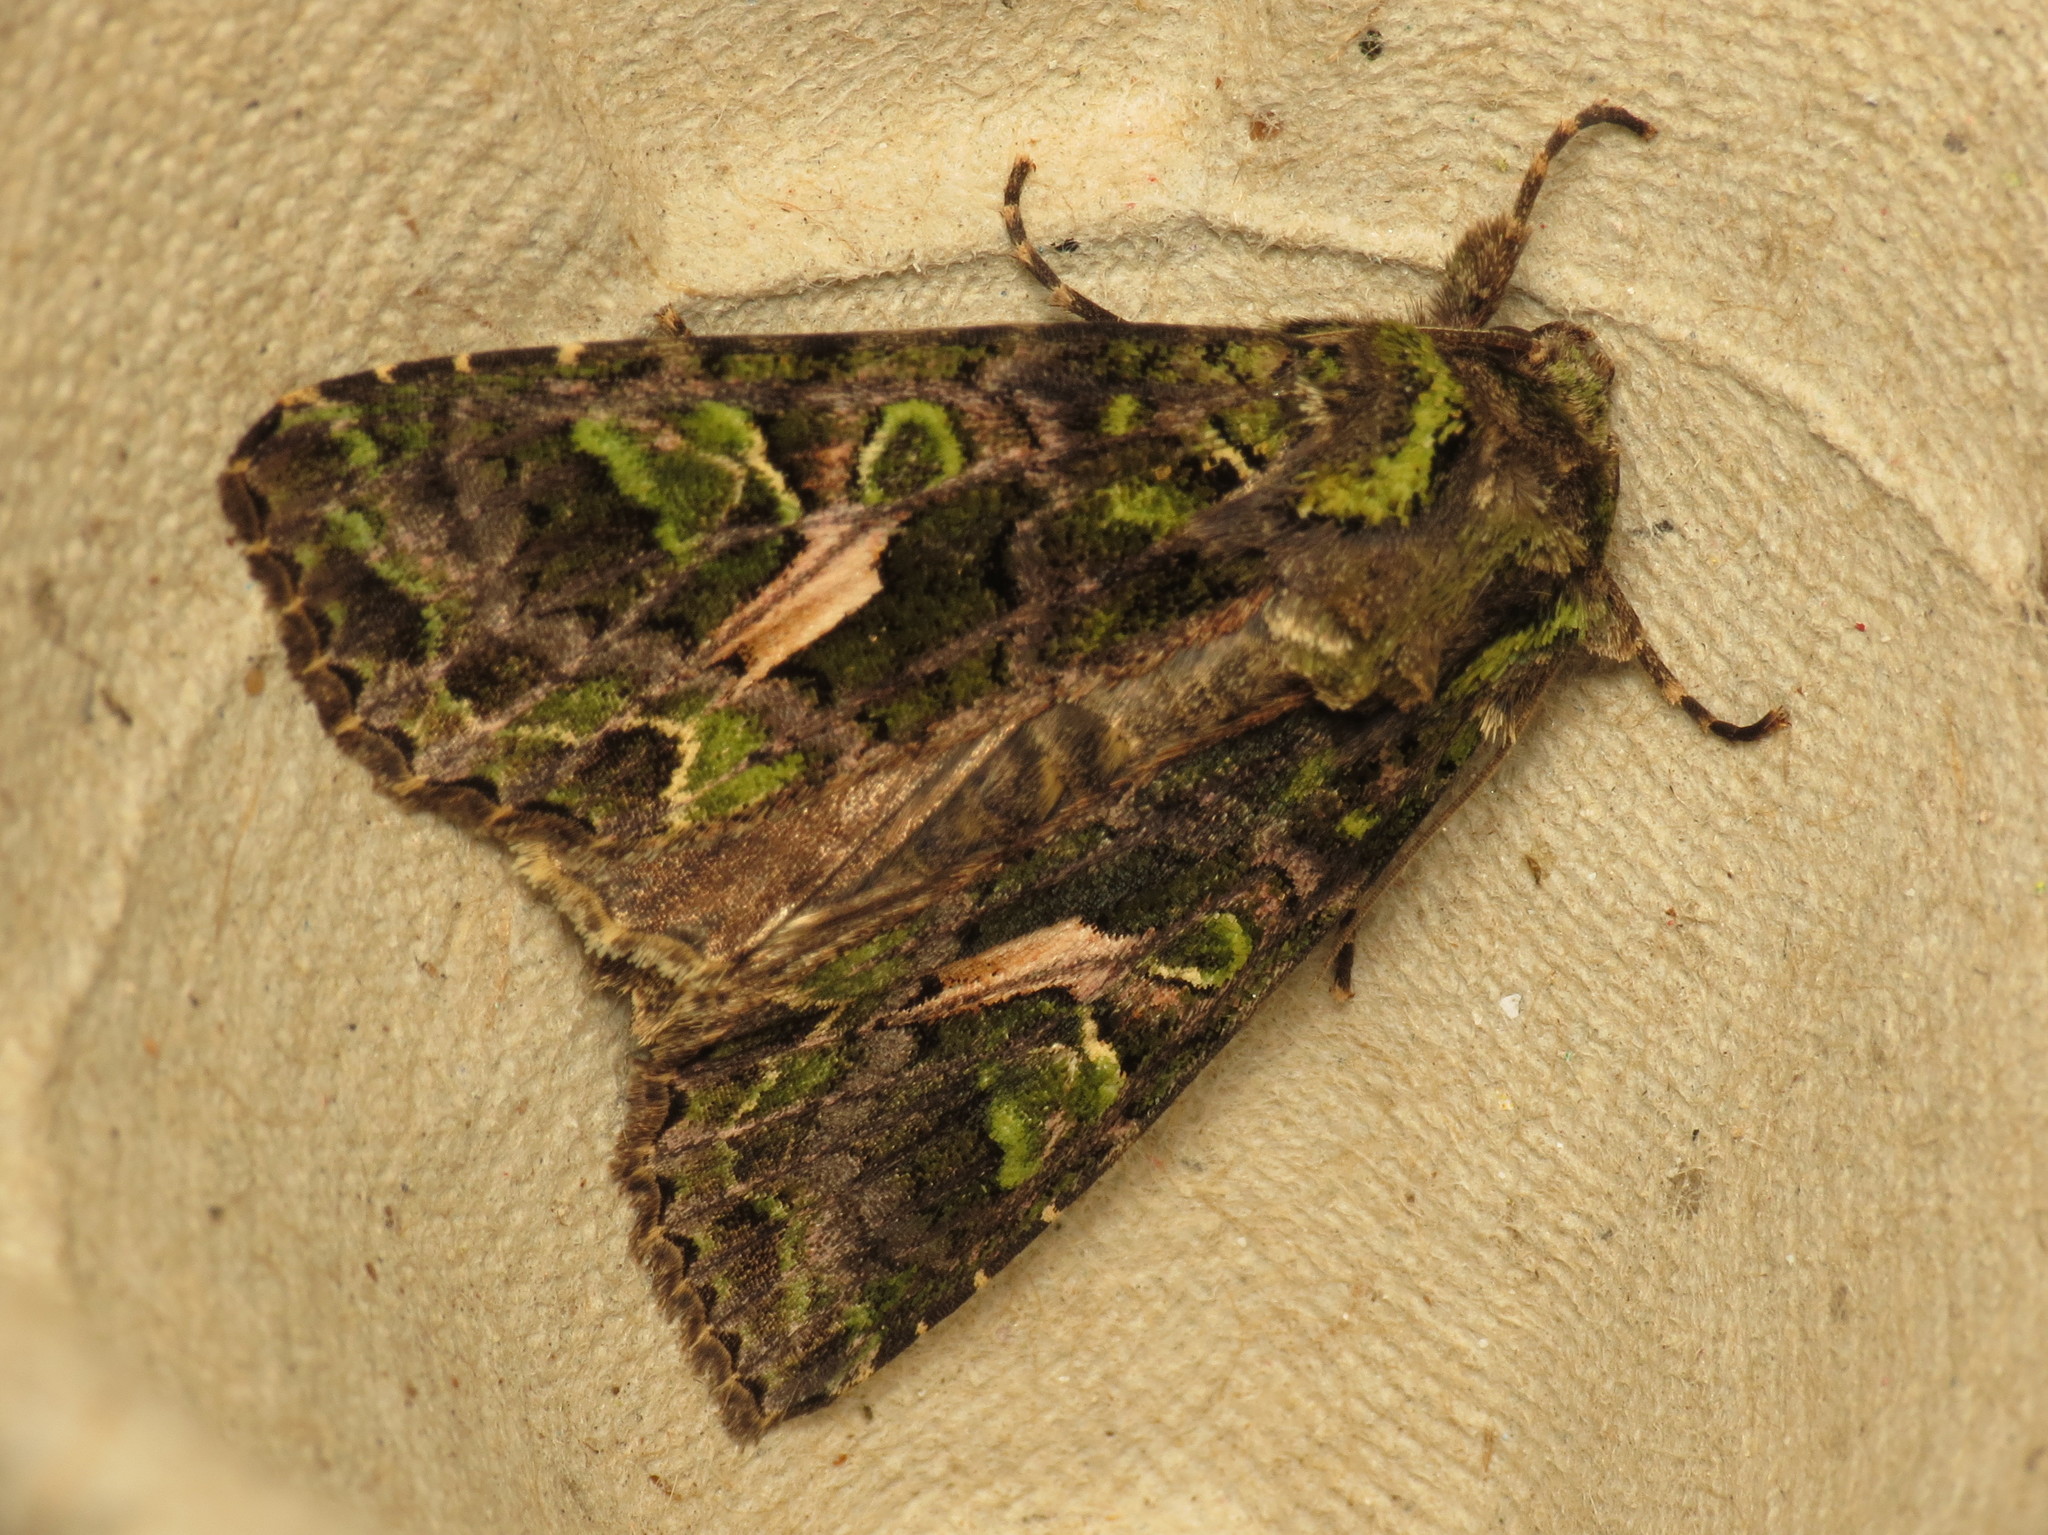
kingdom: Animalia
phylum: Arthropoda
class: Insecta
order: Lepidoptera
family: Noctuidae
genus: Trachea
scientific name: Trachea atriplicis
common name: Orache moth
